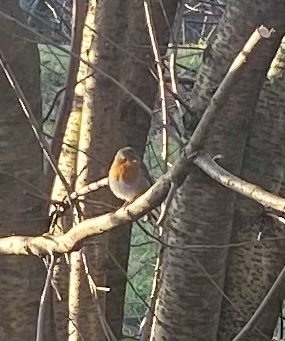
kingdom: Animalia
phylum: Chordata
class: Aves
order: Passeriformes
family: Muscicapidae
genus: Erithacus
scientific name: Erithacus rubecula
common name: European robin
